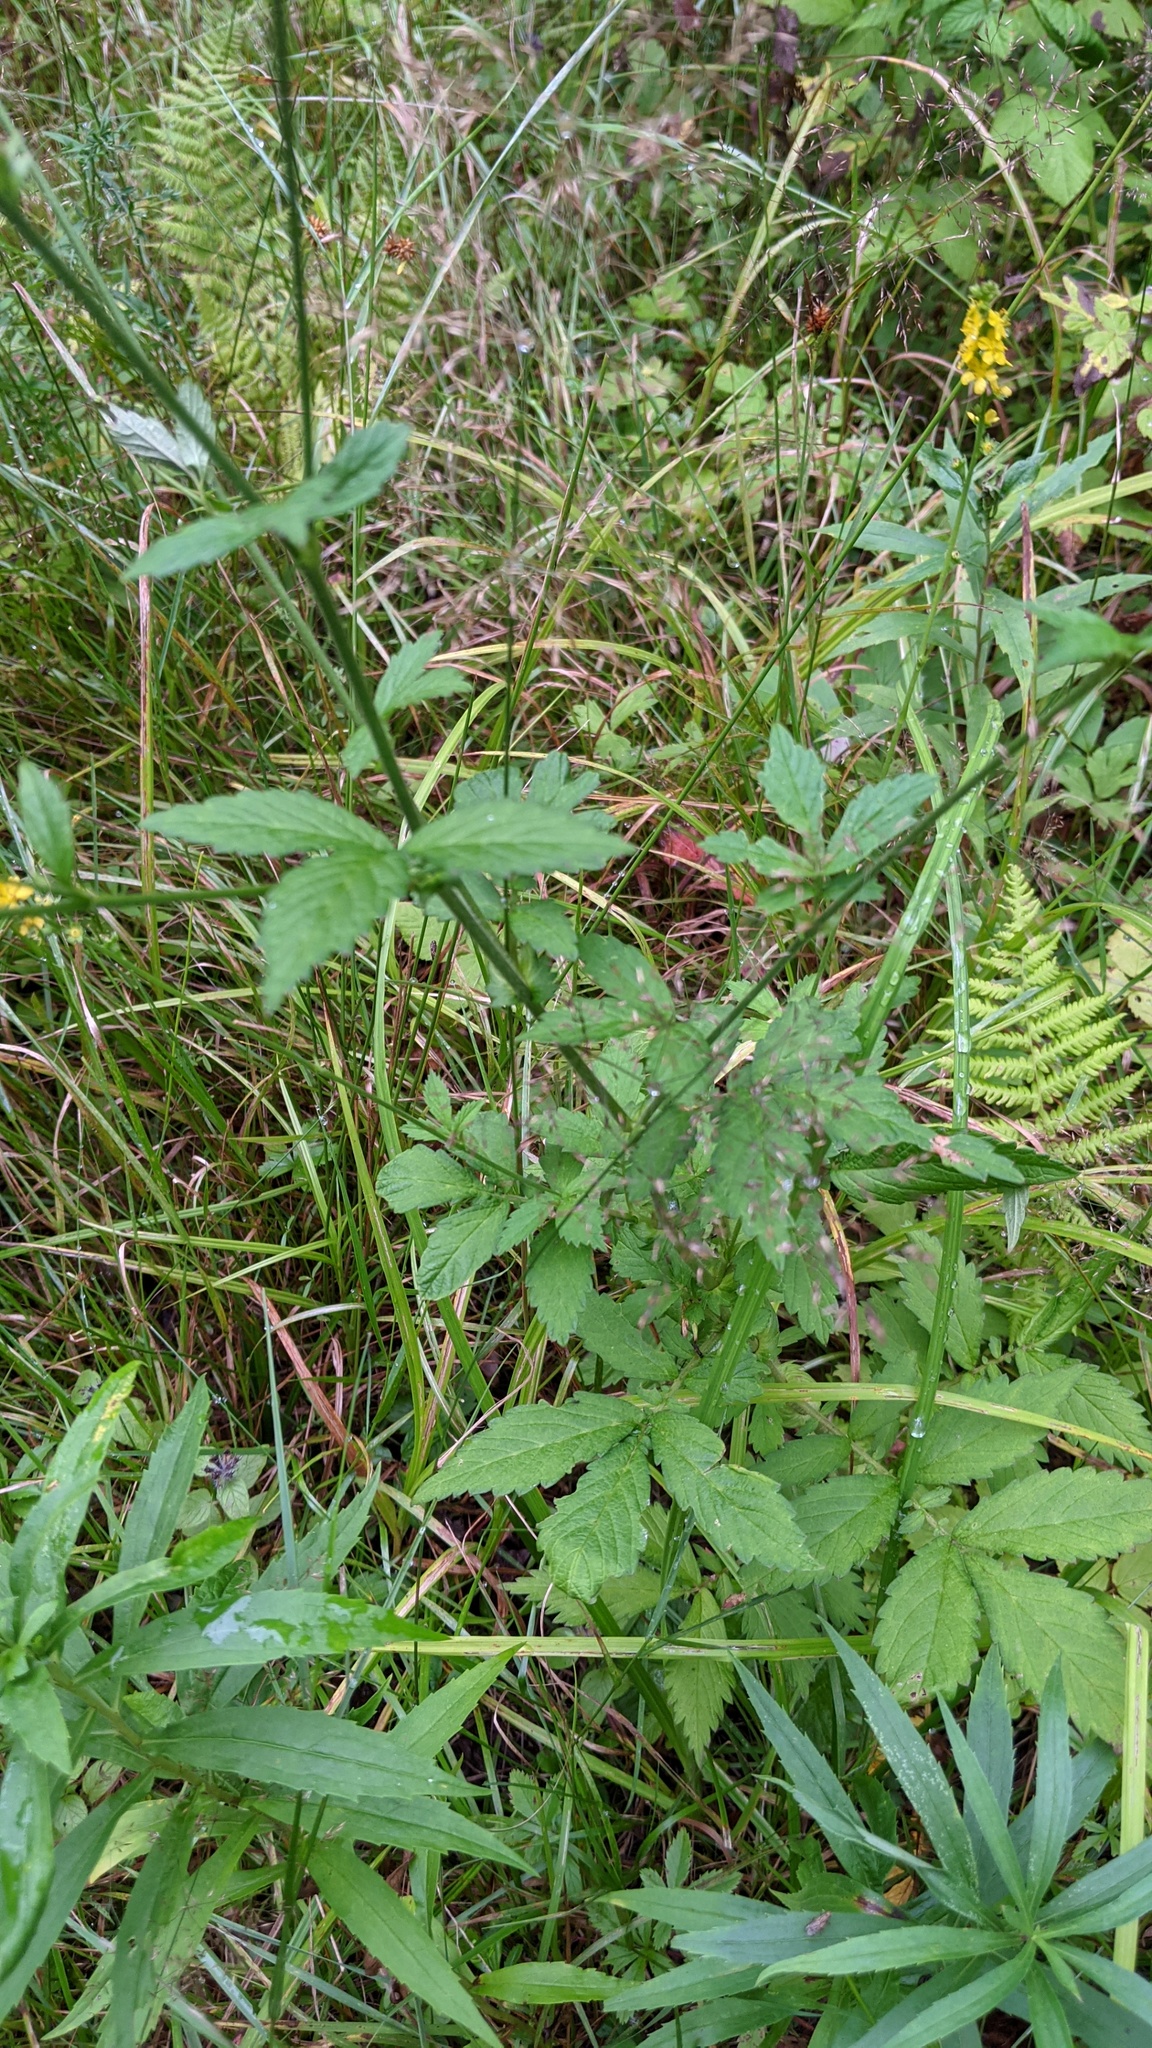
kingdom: Plantae
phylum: Tracheophyta
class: Magnoliopsida
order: Rosales
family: Rosaceae
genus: Agrimonia
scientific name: Agrimonia striata
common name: Britton's agrimony
